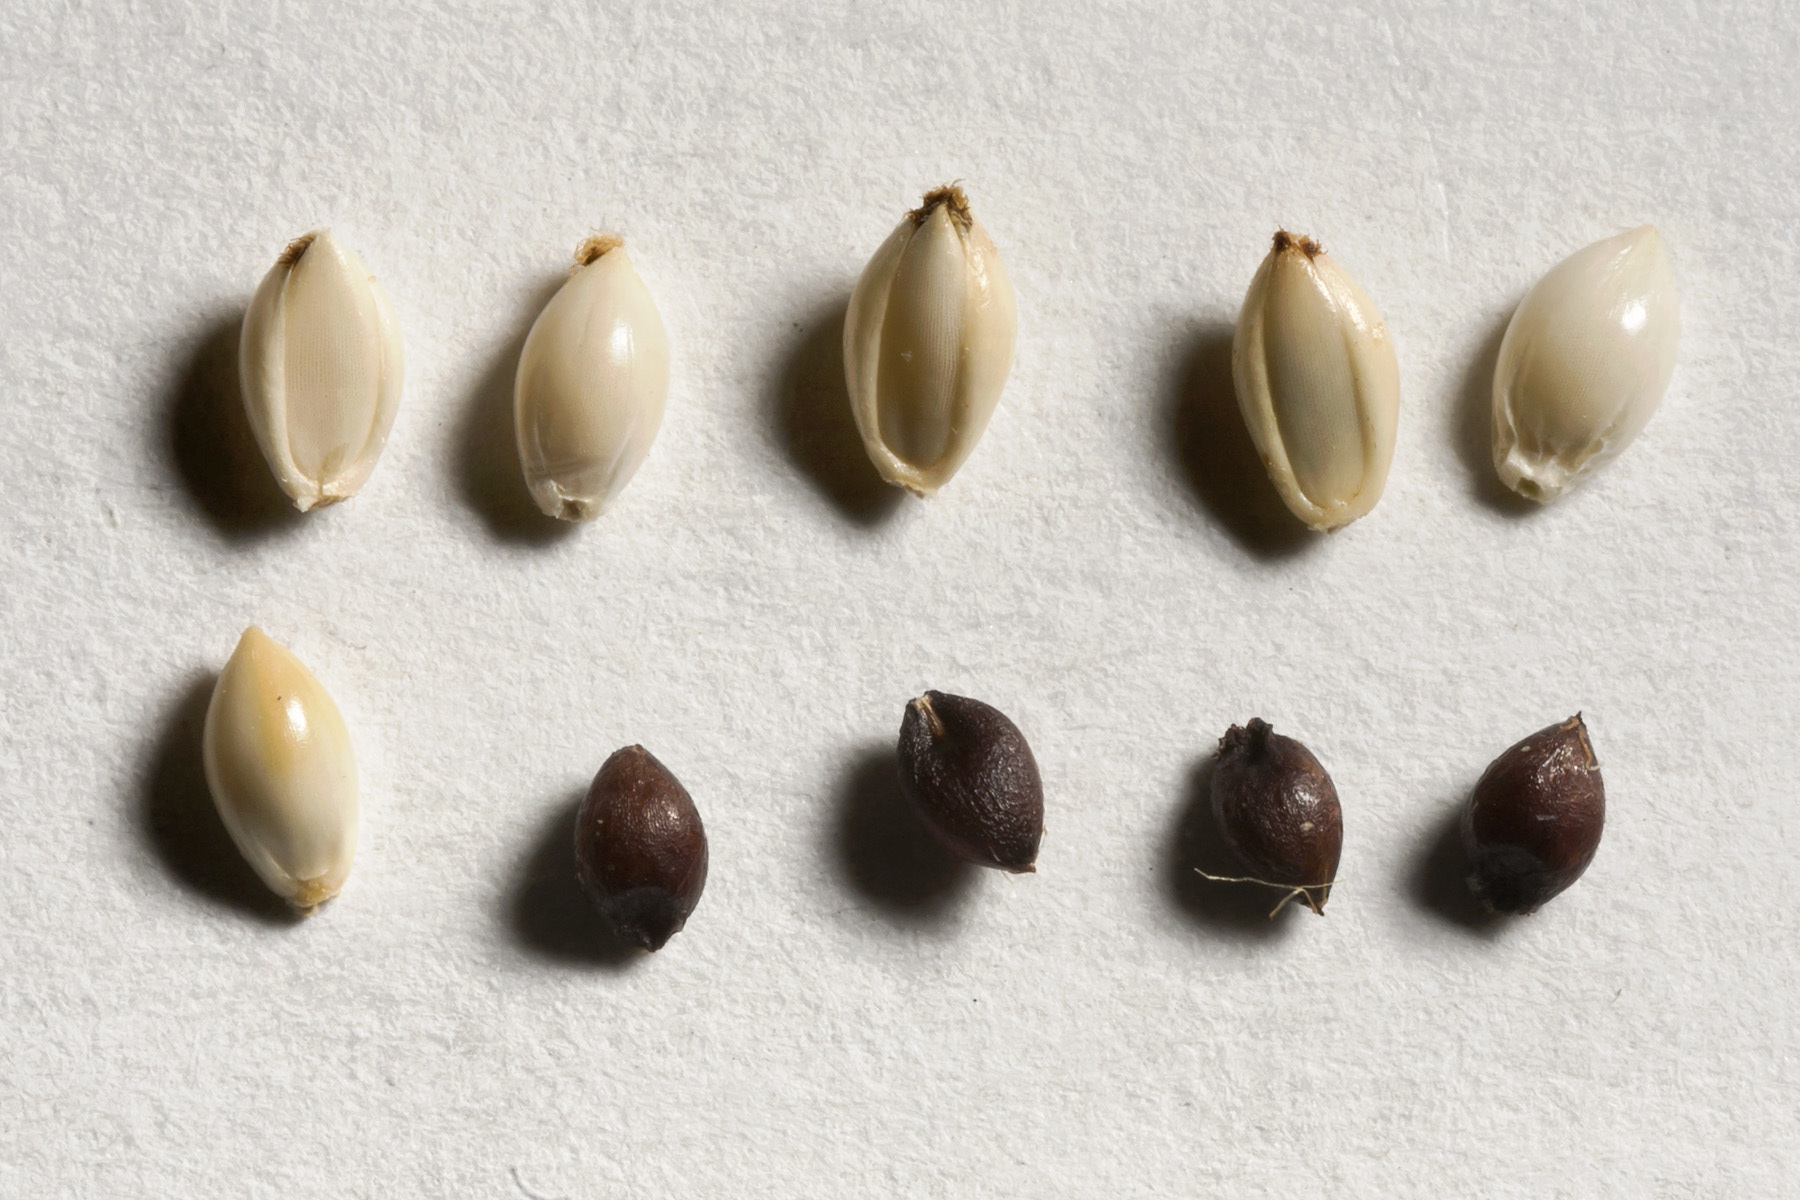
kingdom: Plantae
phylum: Tracheophyta
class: Liliopsida
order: Poales
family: Poaceae
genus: Hopia
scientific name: Hopia obtusa
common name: Vine-mesquite
